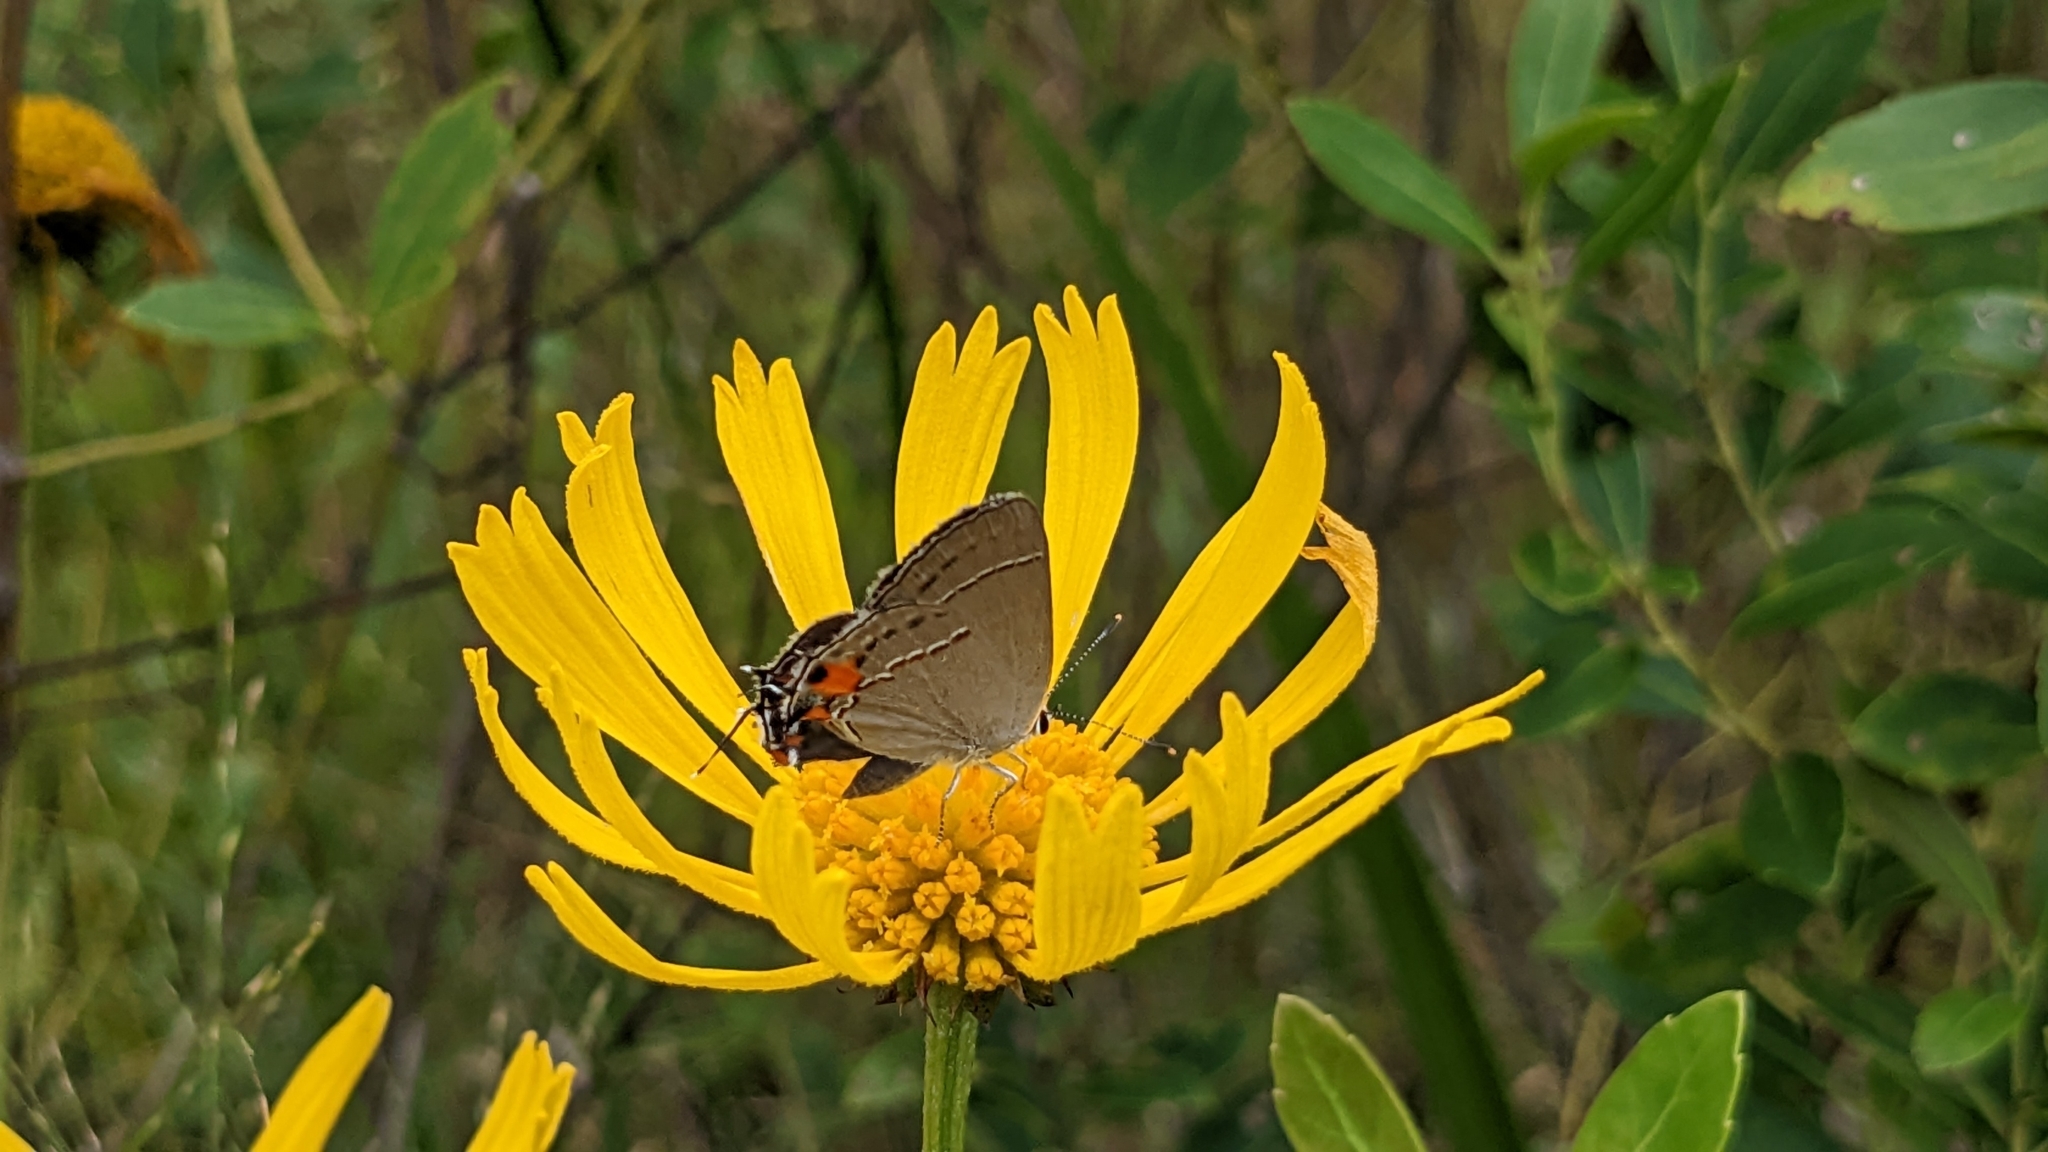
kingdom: Animalia
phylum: Arthropoda
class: Insecta
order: Lepidoptera
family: Lycaenidae
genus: Strymon
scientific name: Strymon melinus
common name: Gray hairstreak
